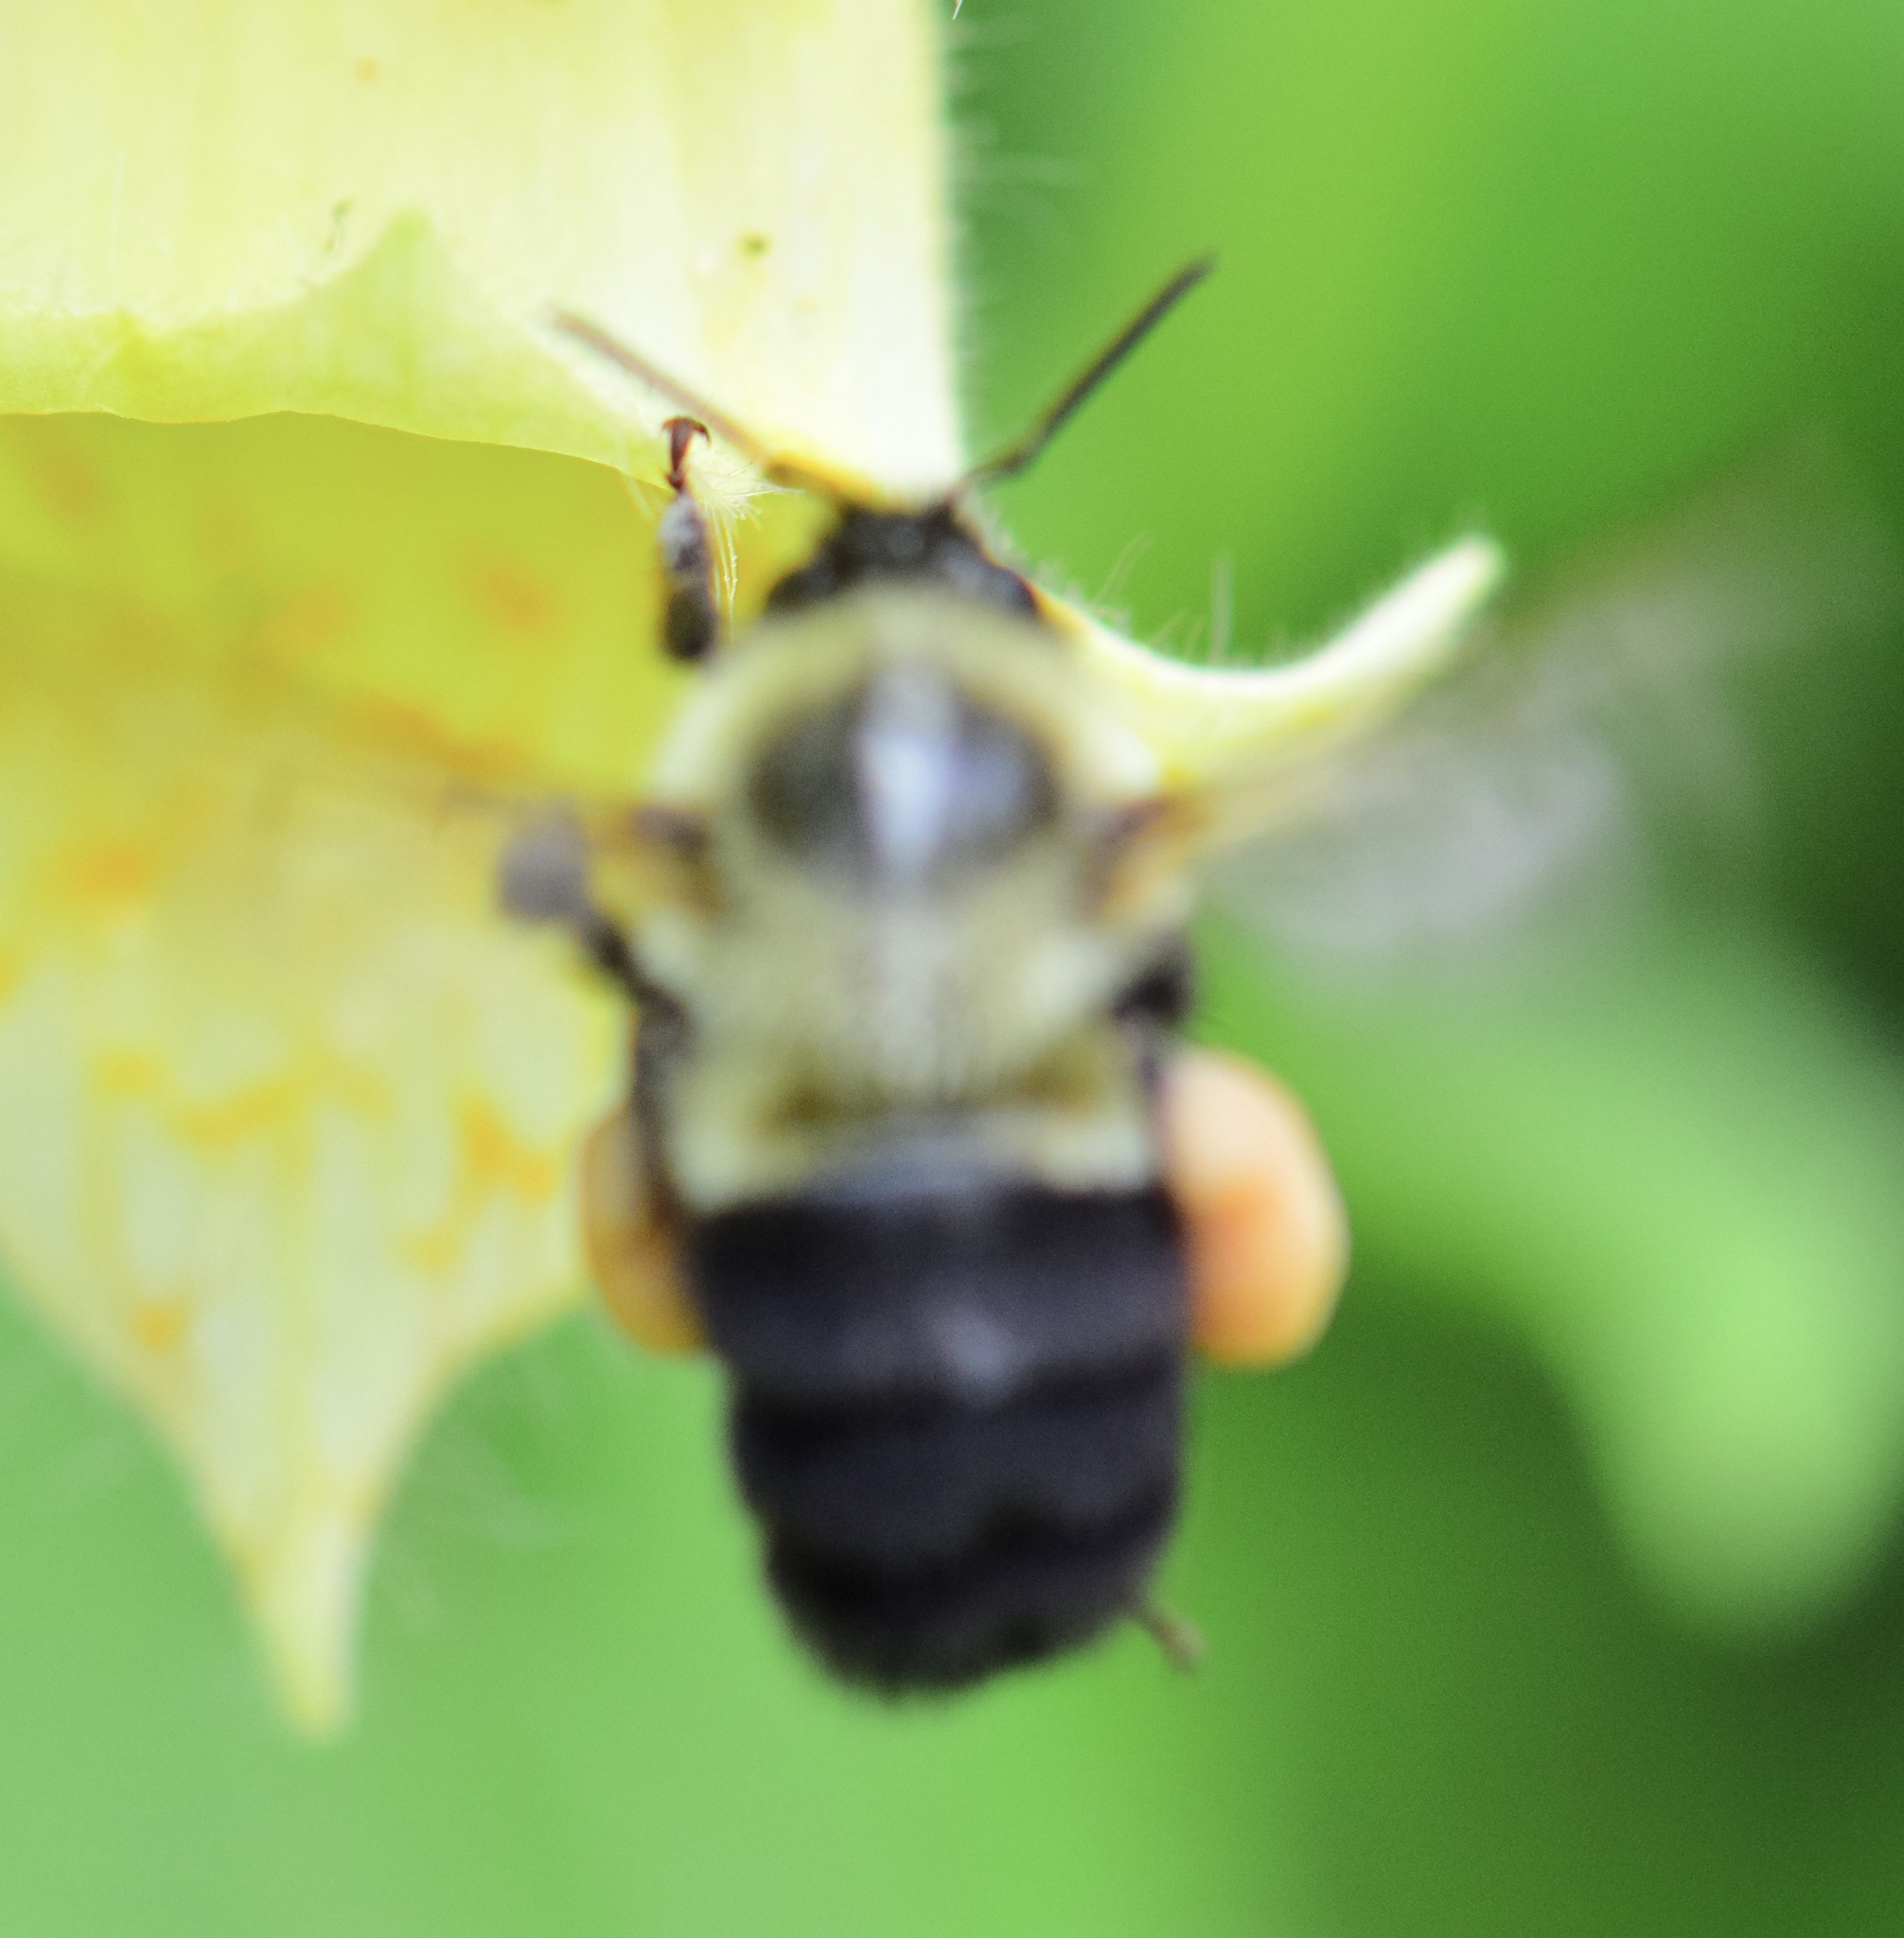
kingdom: Animalia
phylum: Arthropoda
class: Insecta
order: Hymenoptera
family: Apidae
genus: Bombus
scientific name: Bombus impatiens
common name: Common eastern bumble bee
